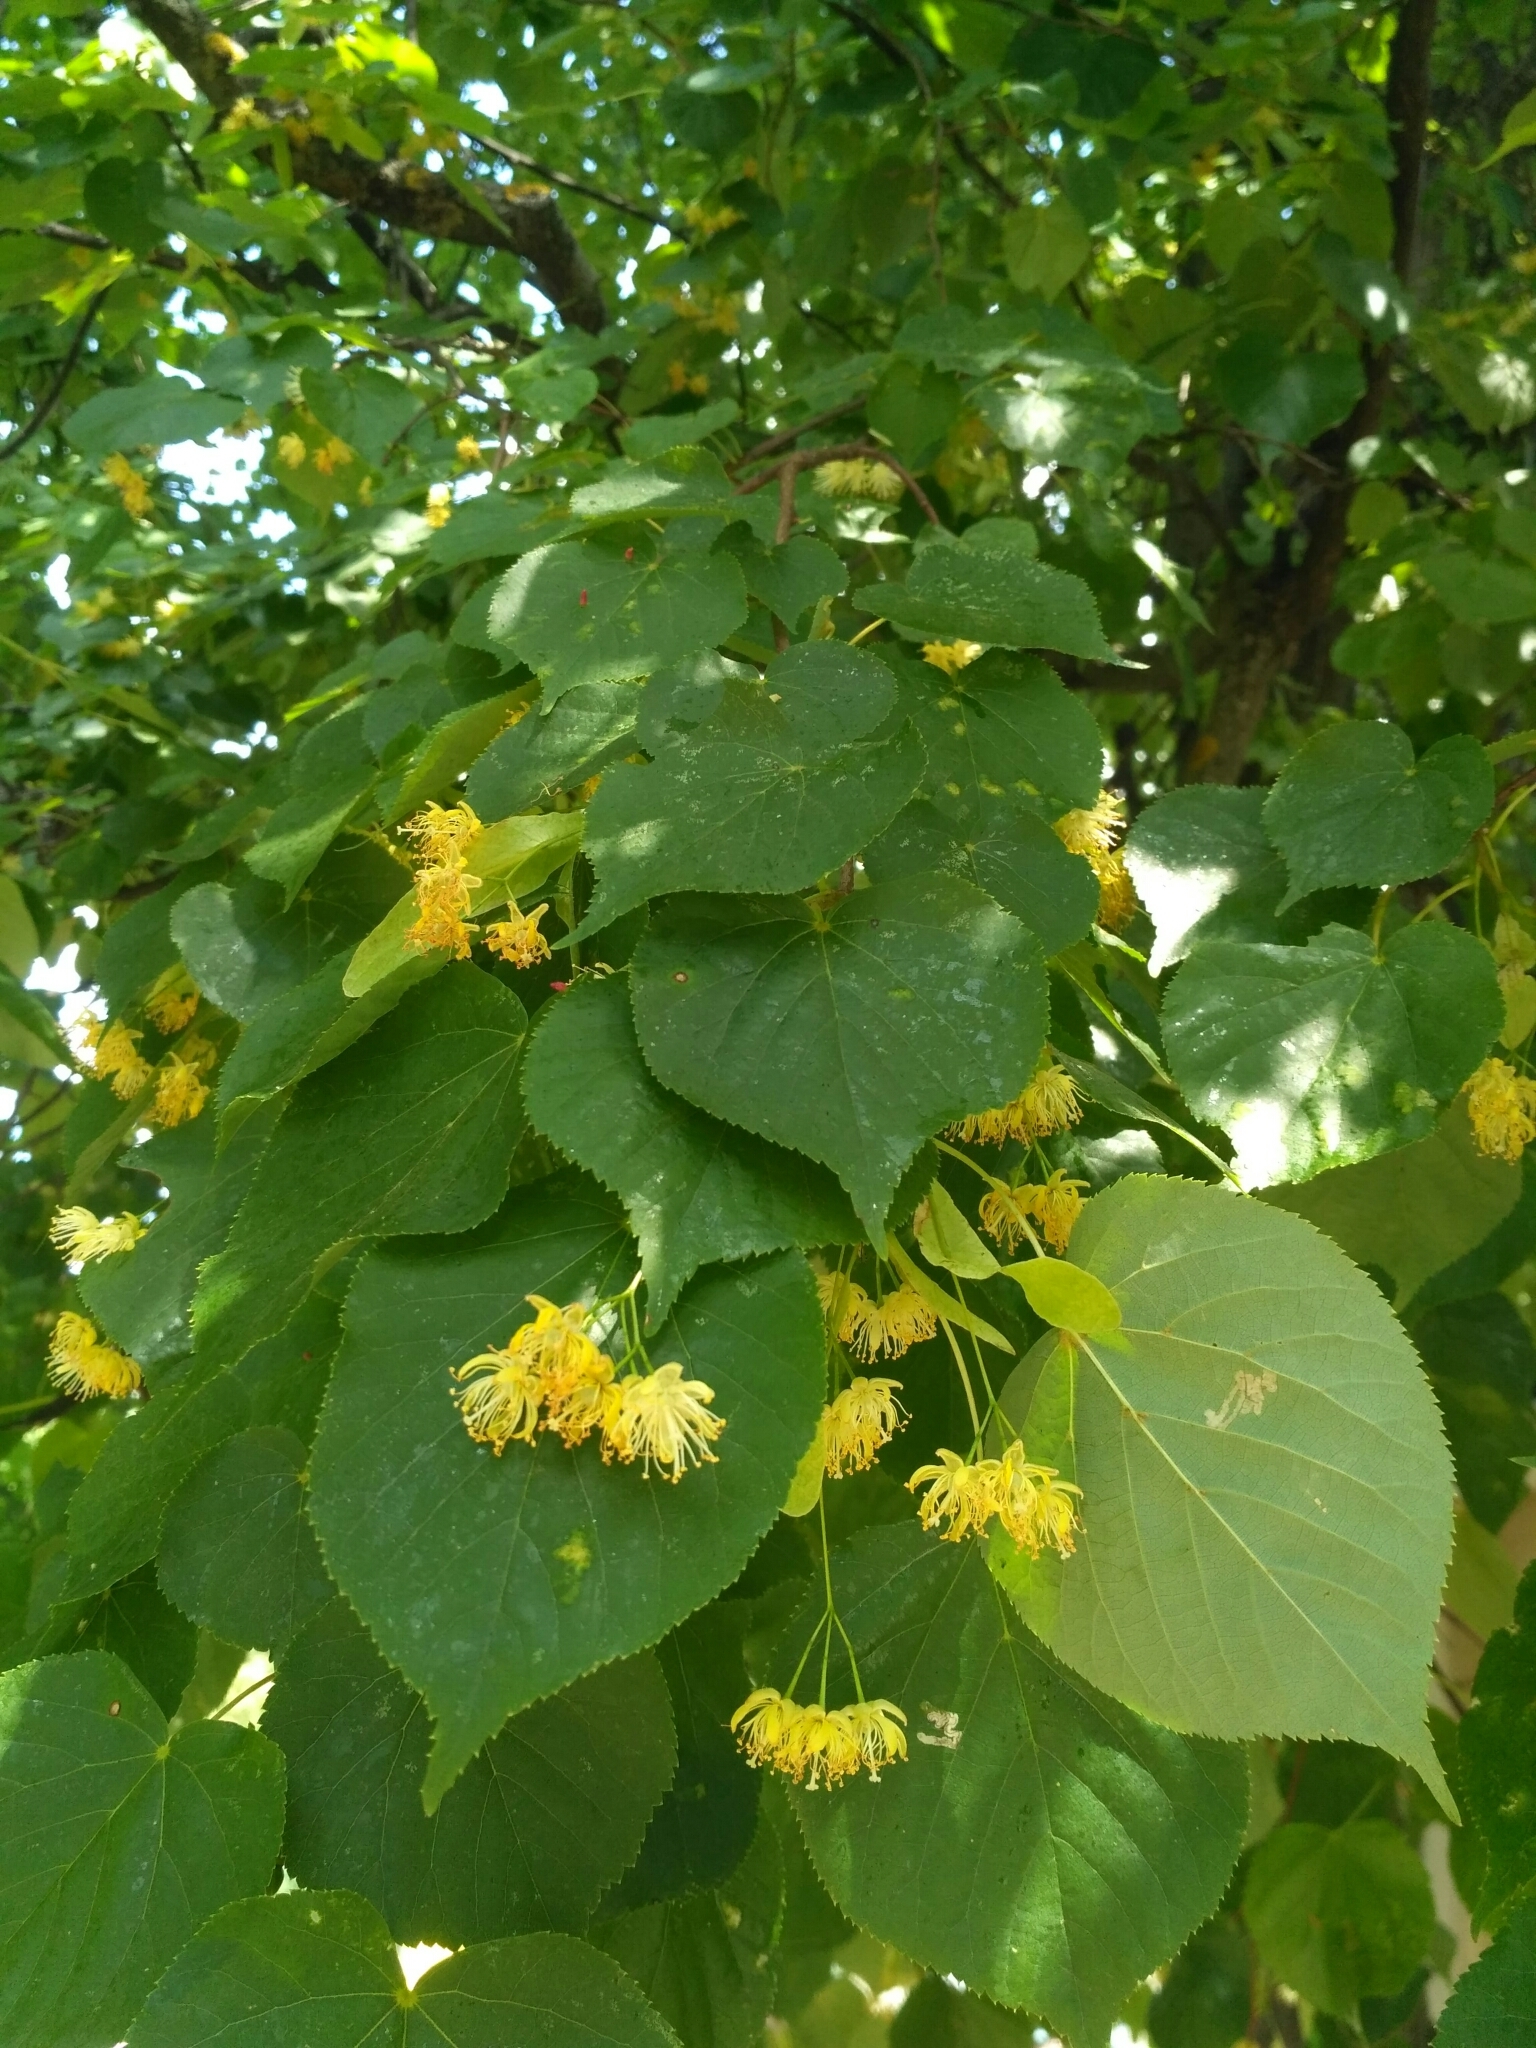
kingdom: Plantae
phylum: Tracheophyta
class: Magnoliopsida
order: Malvales
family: Malvaceae
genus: Tilia
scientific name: Tilia cordata
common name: Small-leaved lime
